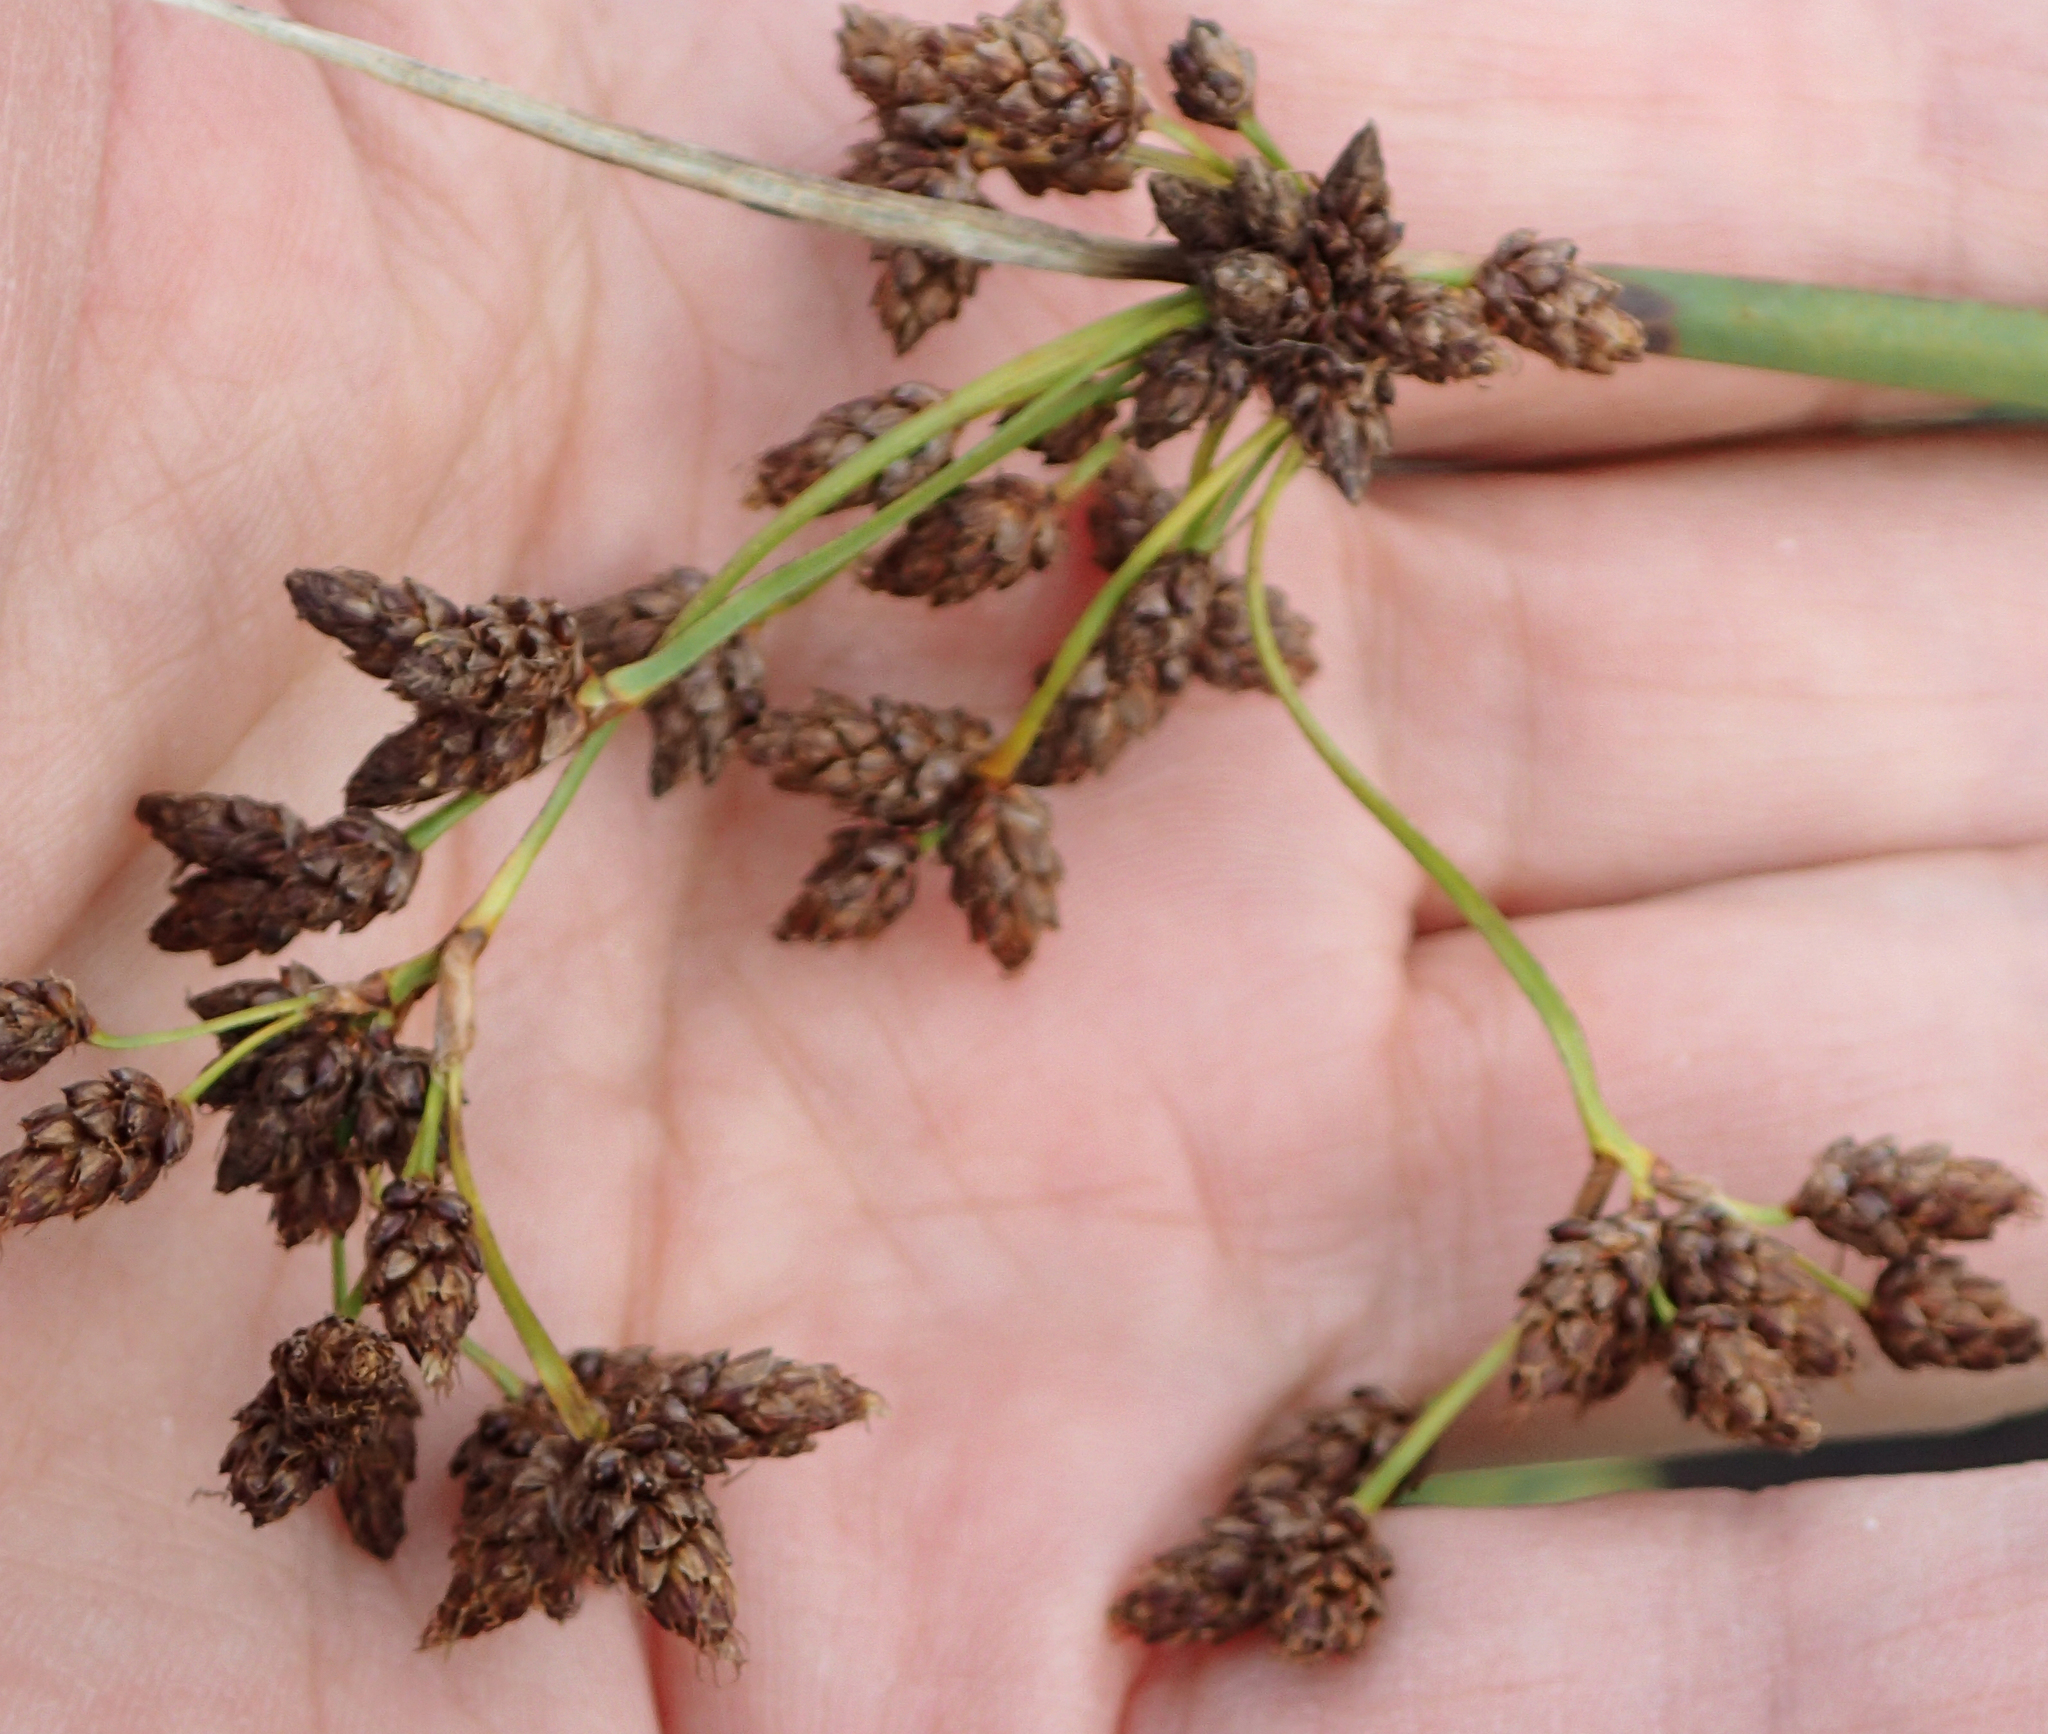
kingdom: Plantae
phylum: Tracheophyta
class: Liliopsida
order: Poales
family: Cyperaceae
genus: Schoenoplectus
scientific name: Schoenoplectus tabernaemontani
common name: Grey club-rush
